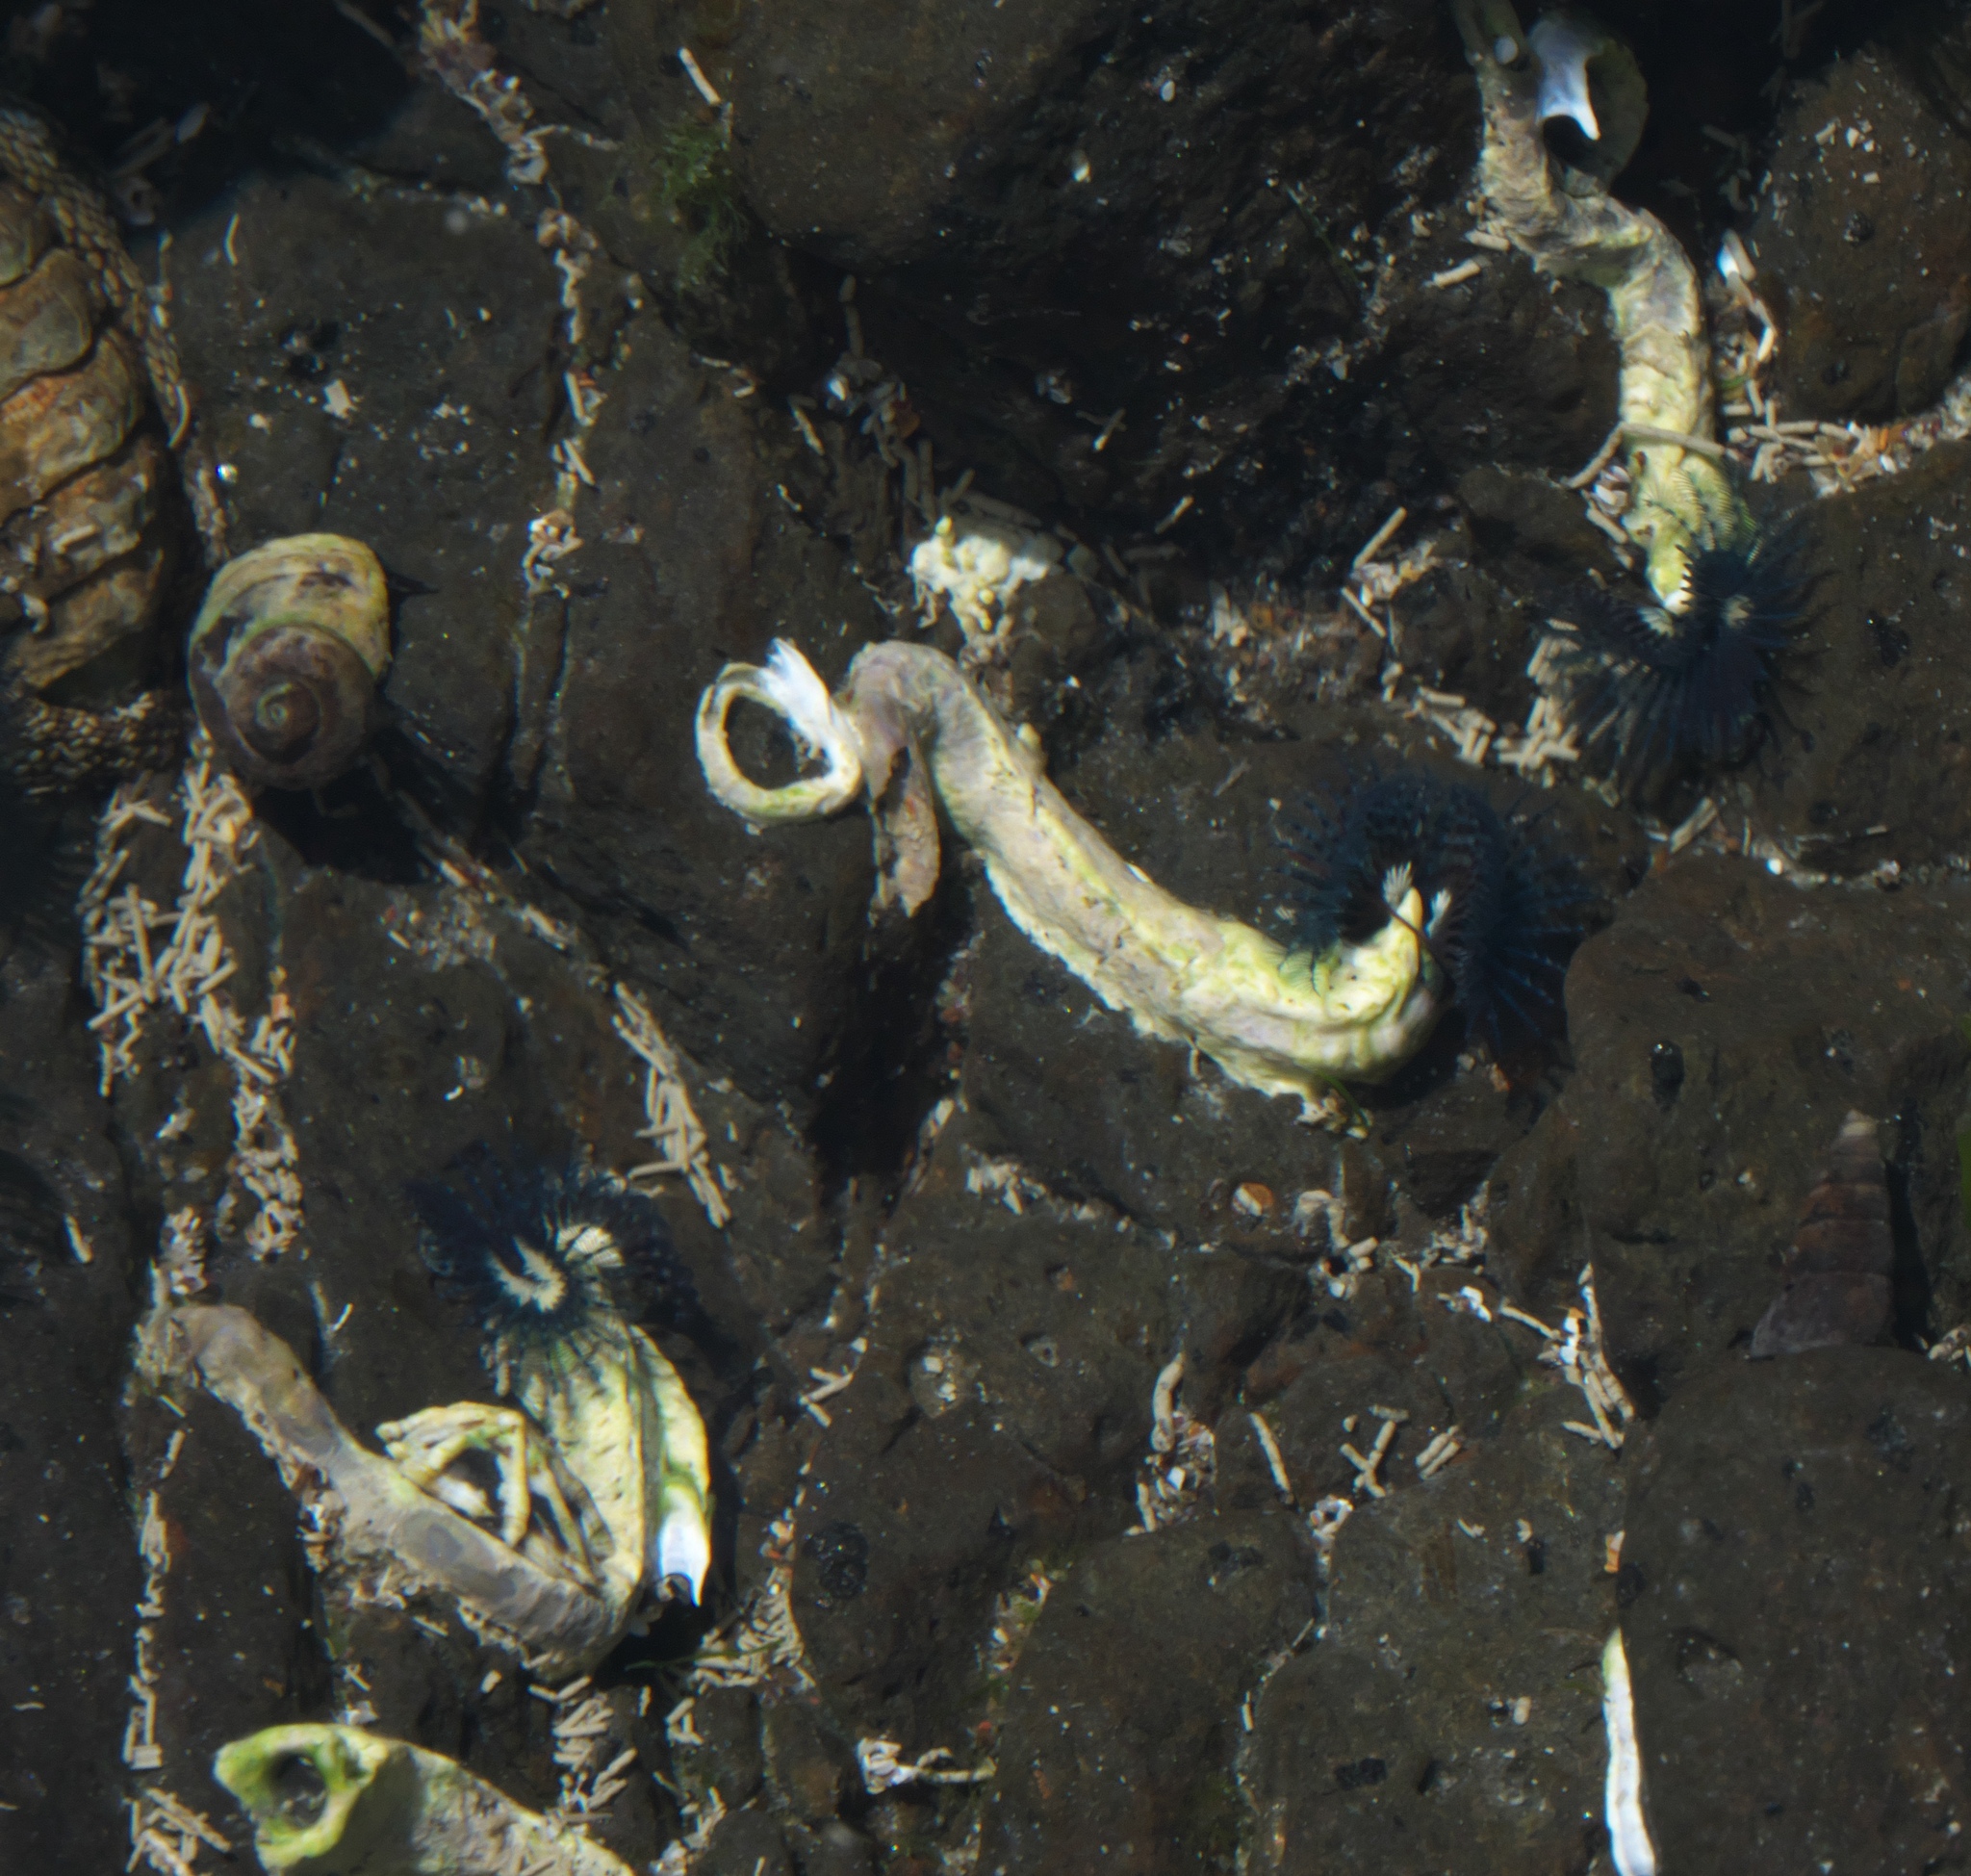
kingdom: Animalia
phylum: Annelida
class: Polychaeta
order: Sabellida
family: Serpulidae
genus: Spirobranchus
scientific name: Spirobranchus cariniferus
